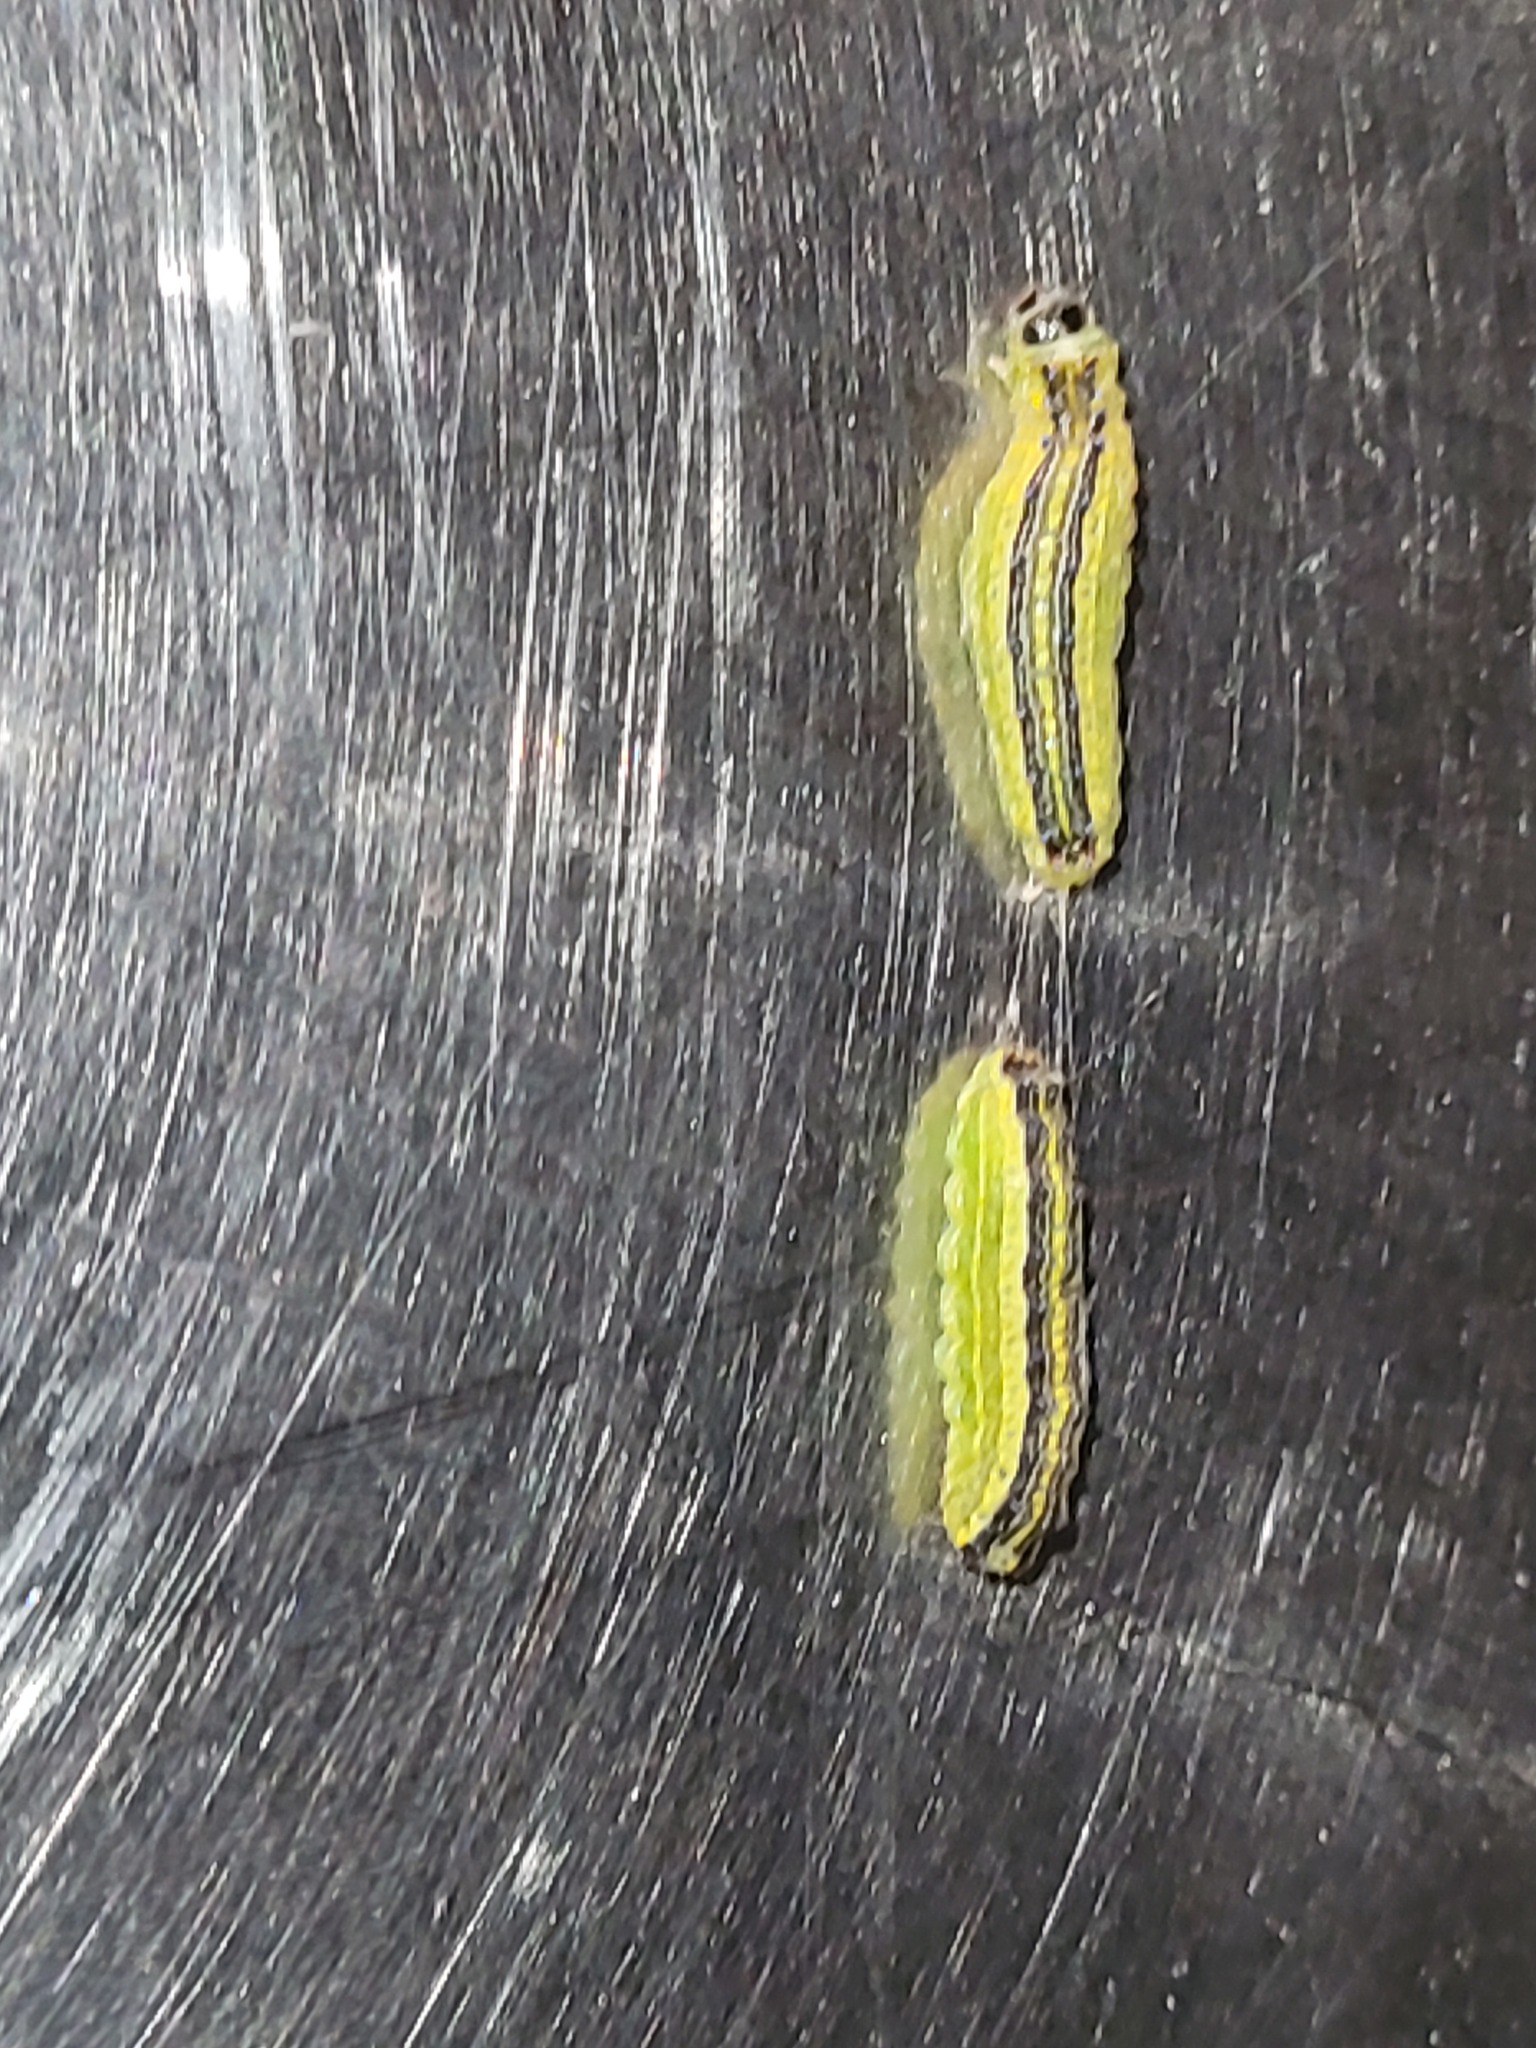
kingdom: Animalia
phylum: Arthropoda
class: Insecta
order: Lepidoptera
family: Lacturidae
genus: Lactura
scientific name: Lactura
